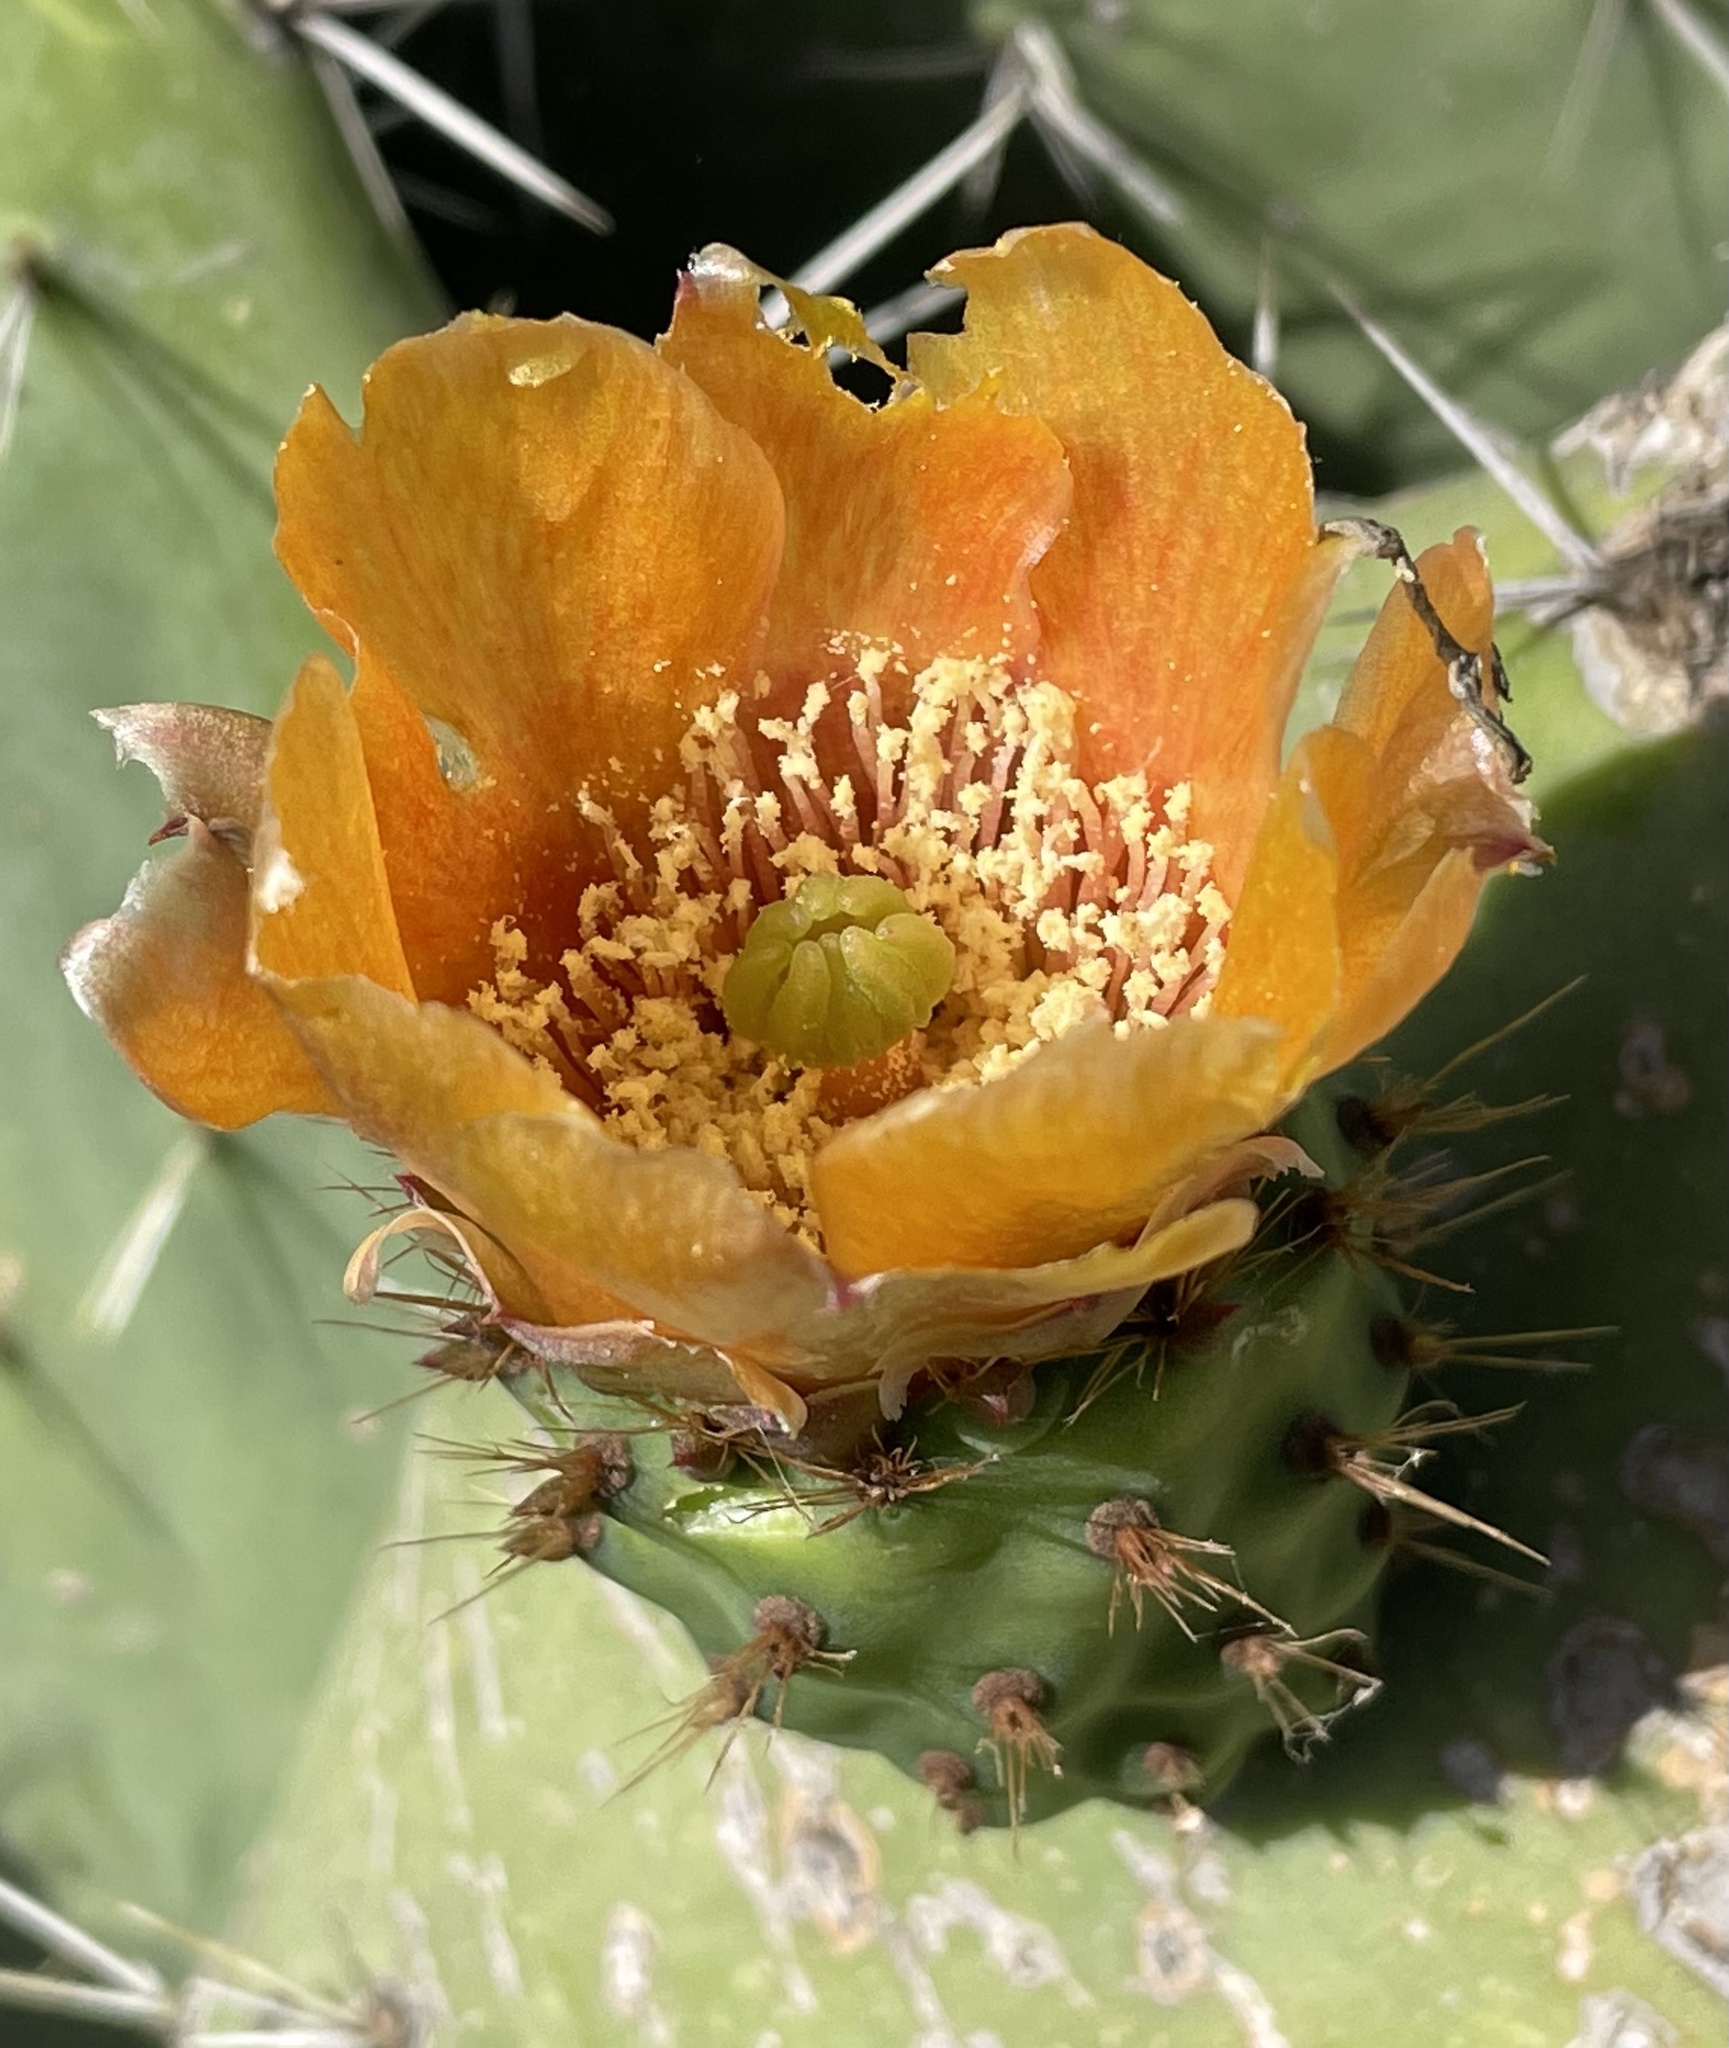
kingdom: Plantae
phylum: Tracheophyta
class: Magnoliopsida
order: Caryophyllales
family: Cactaceae
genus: Opuntia
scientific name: Opuntia ficus-indica
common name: Barbary fig
